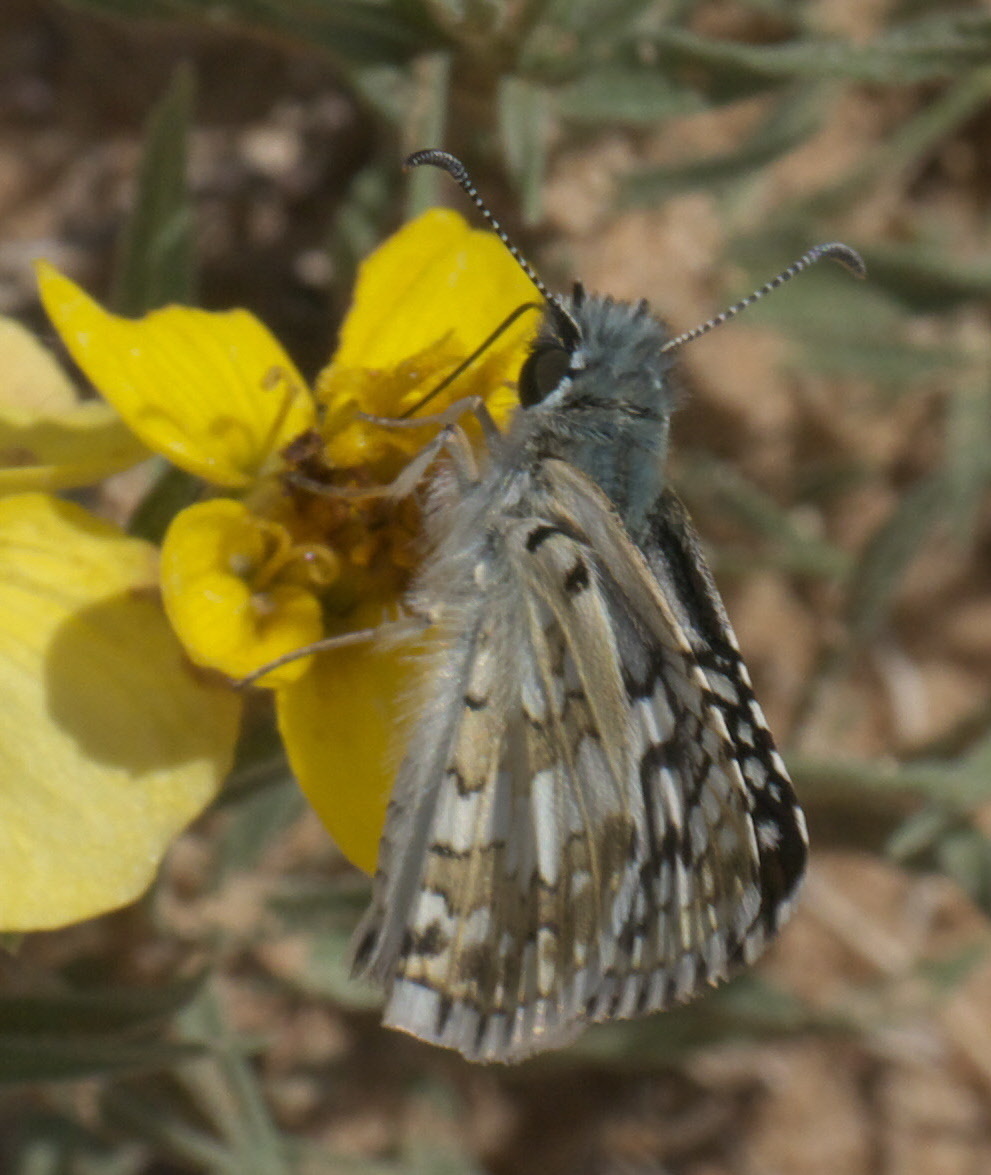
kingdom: Animalia
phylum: Arthropoda
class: Insecta
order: Lepidoptera
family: Hesperiidae
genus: Burnsius
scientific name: Burnsius communis
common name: Common checkered-skipper
